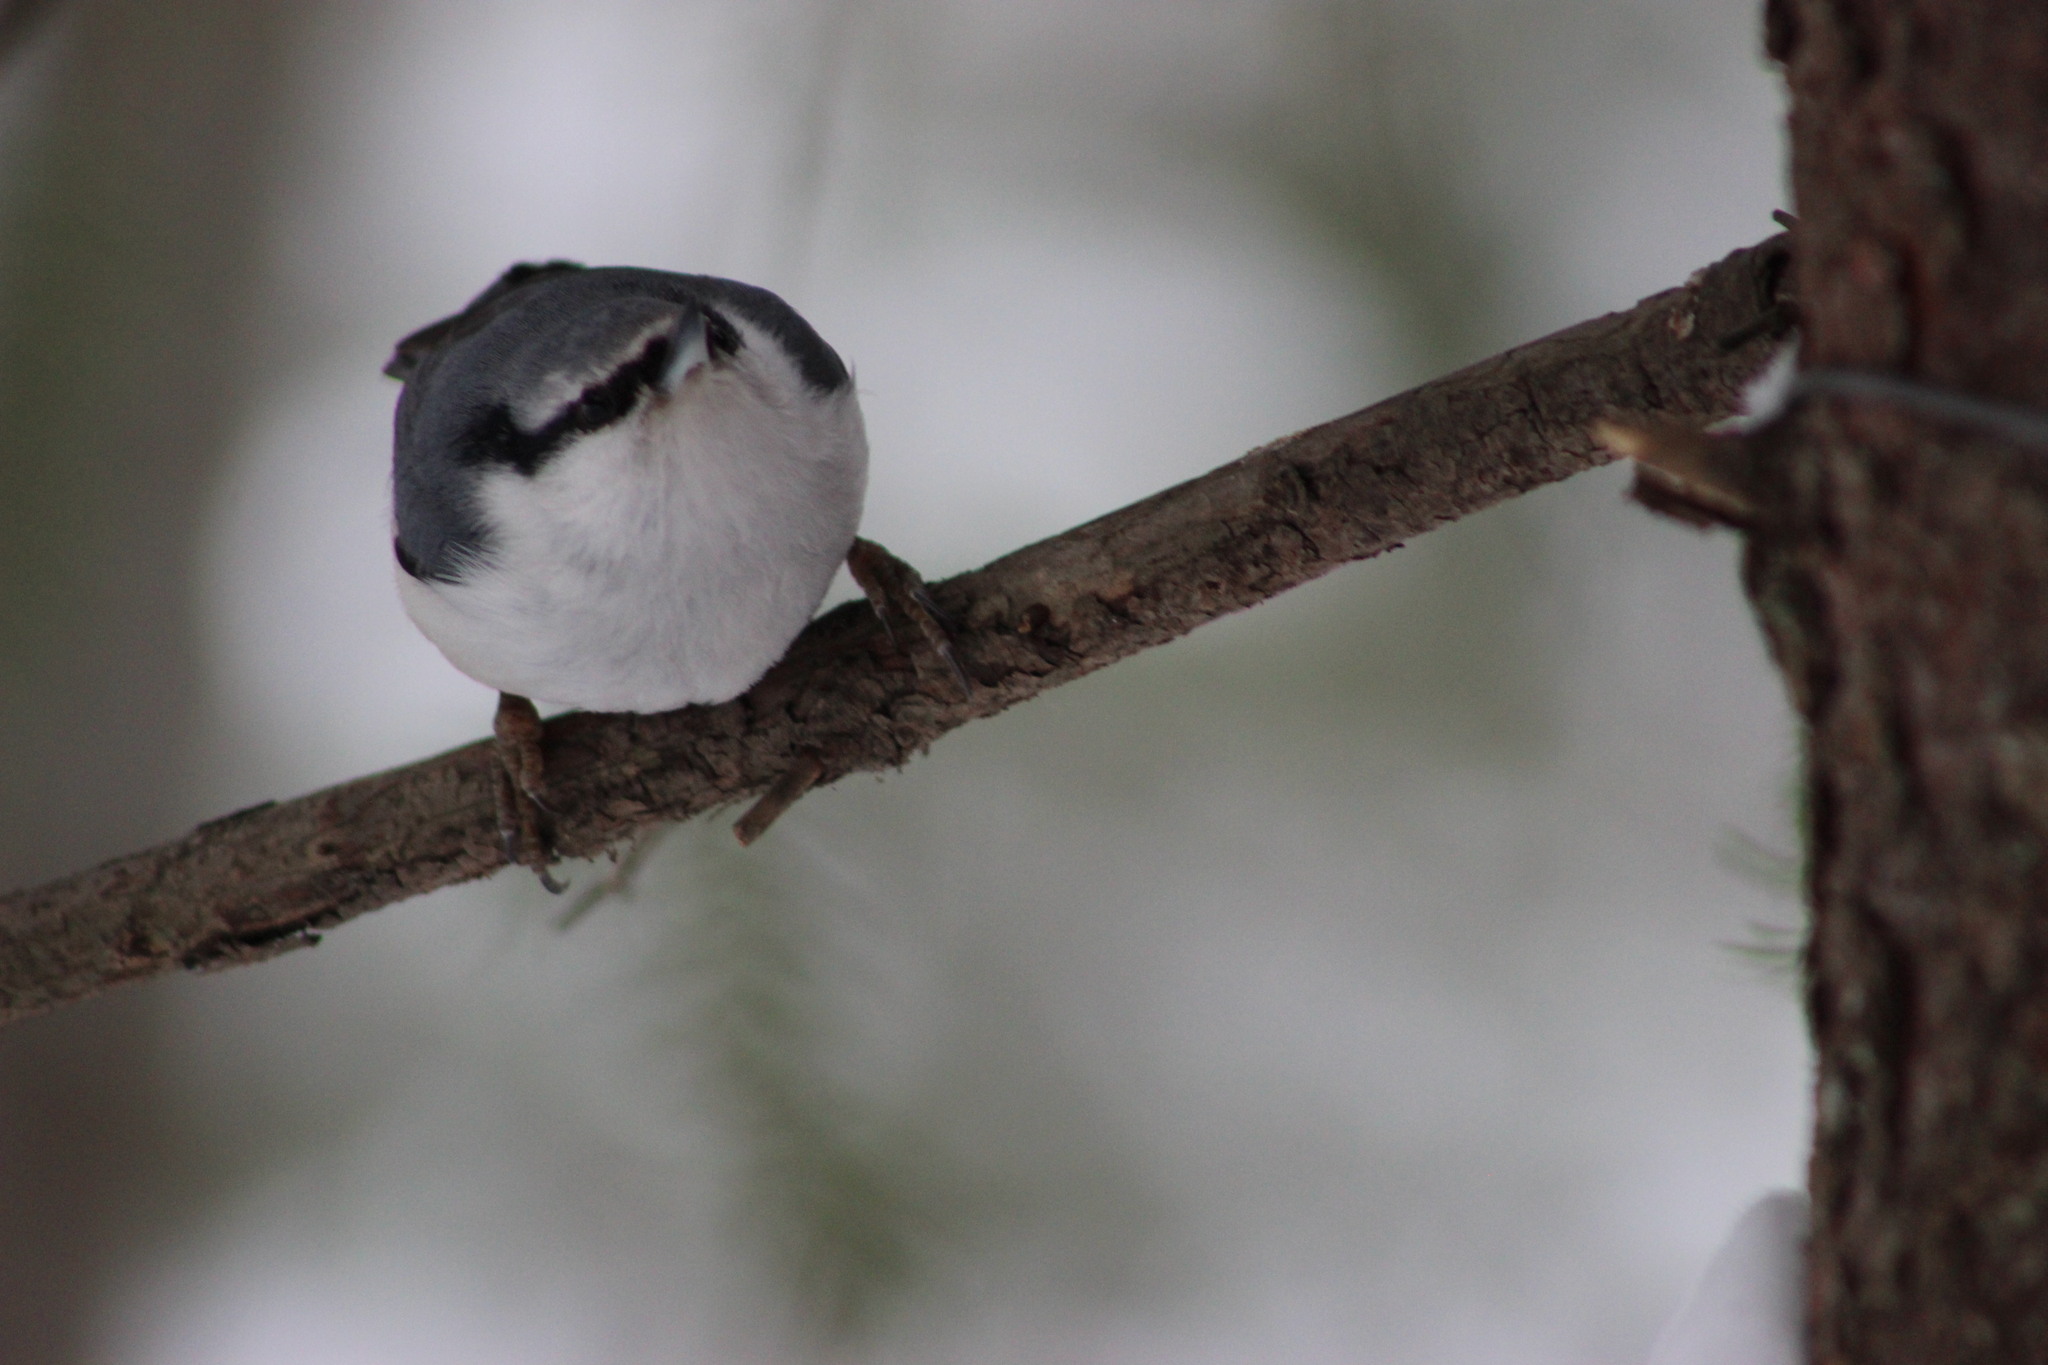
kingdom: Animalia
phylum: Chordata
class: Aves
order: Passeriformes
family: Sittidae
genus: Sitta
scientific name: Sitta europaea
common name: Eurasian nuthatch
